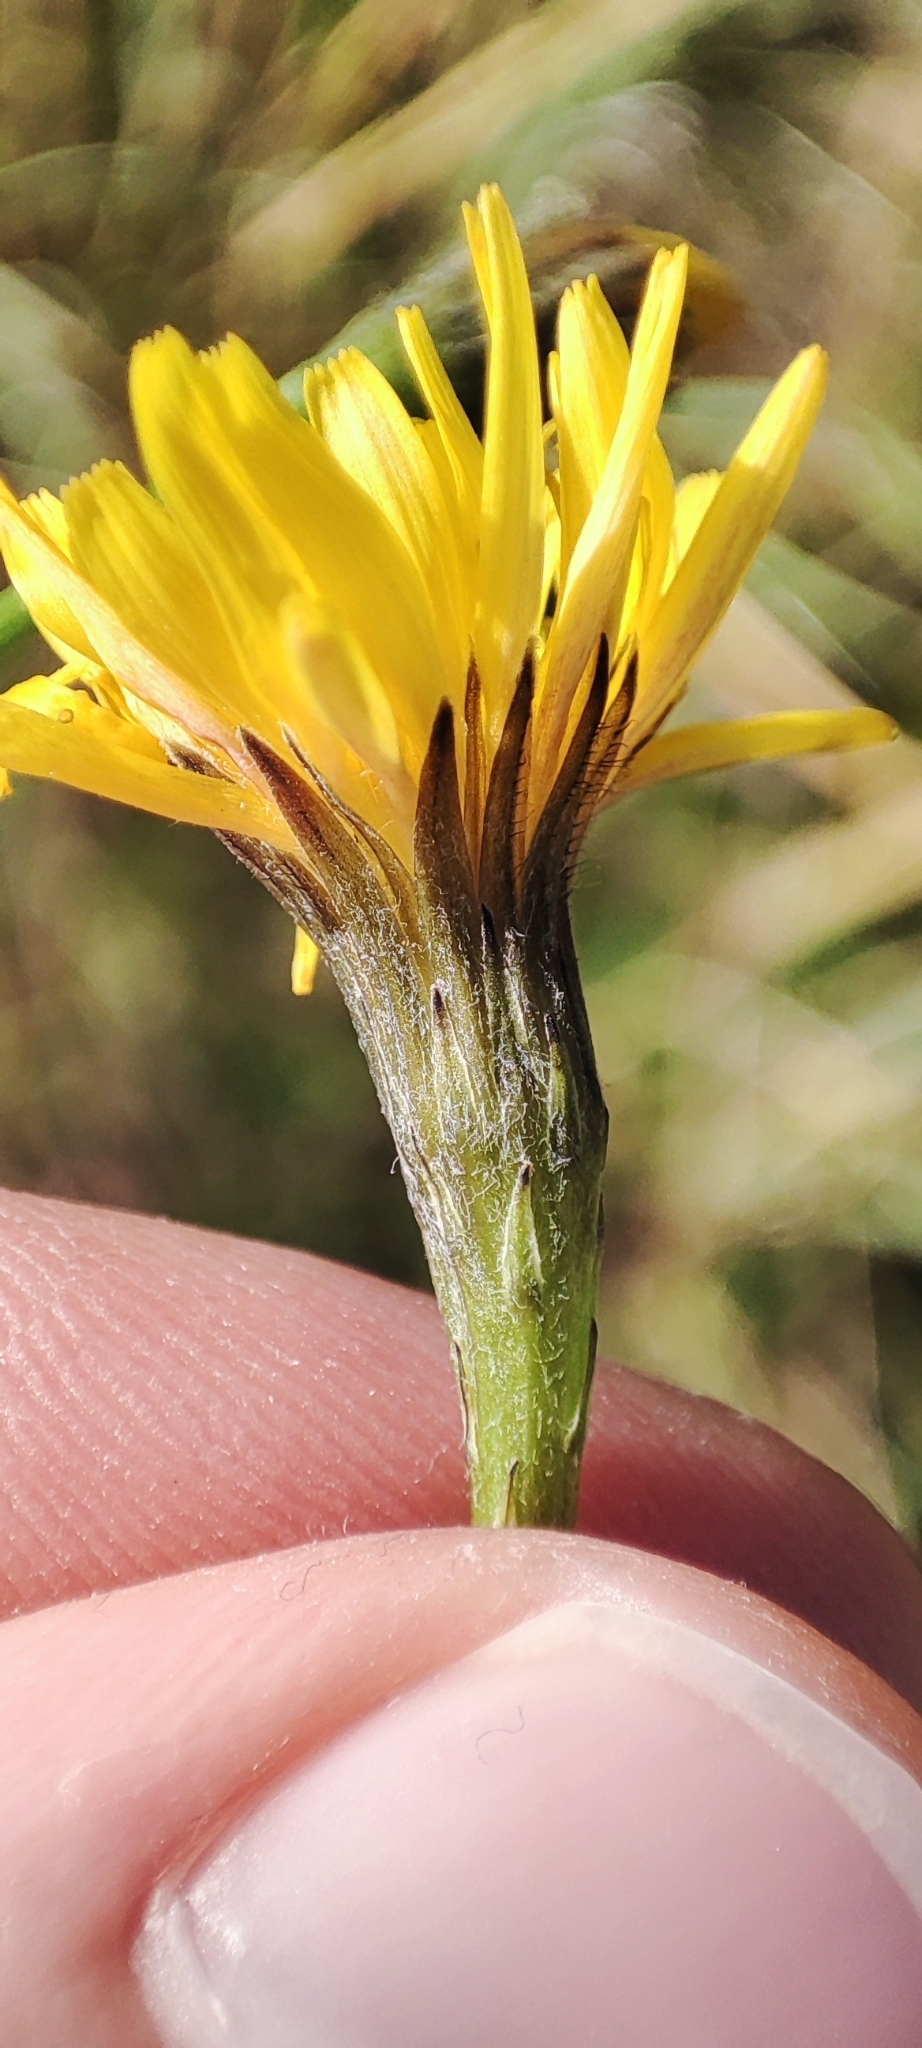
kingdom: Plantae
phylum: Tracheophyta
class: Magnoliopsida
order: Asterales
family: Asteraceae
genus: Scorzoneroides
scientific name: Scorzoneroides autumnalis
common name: Autumn hawkbit
